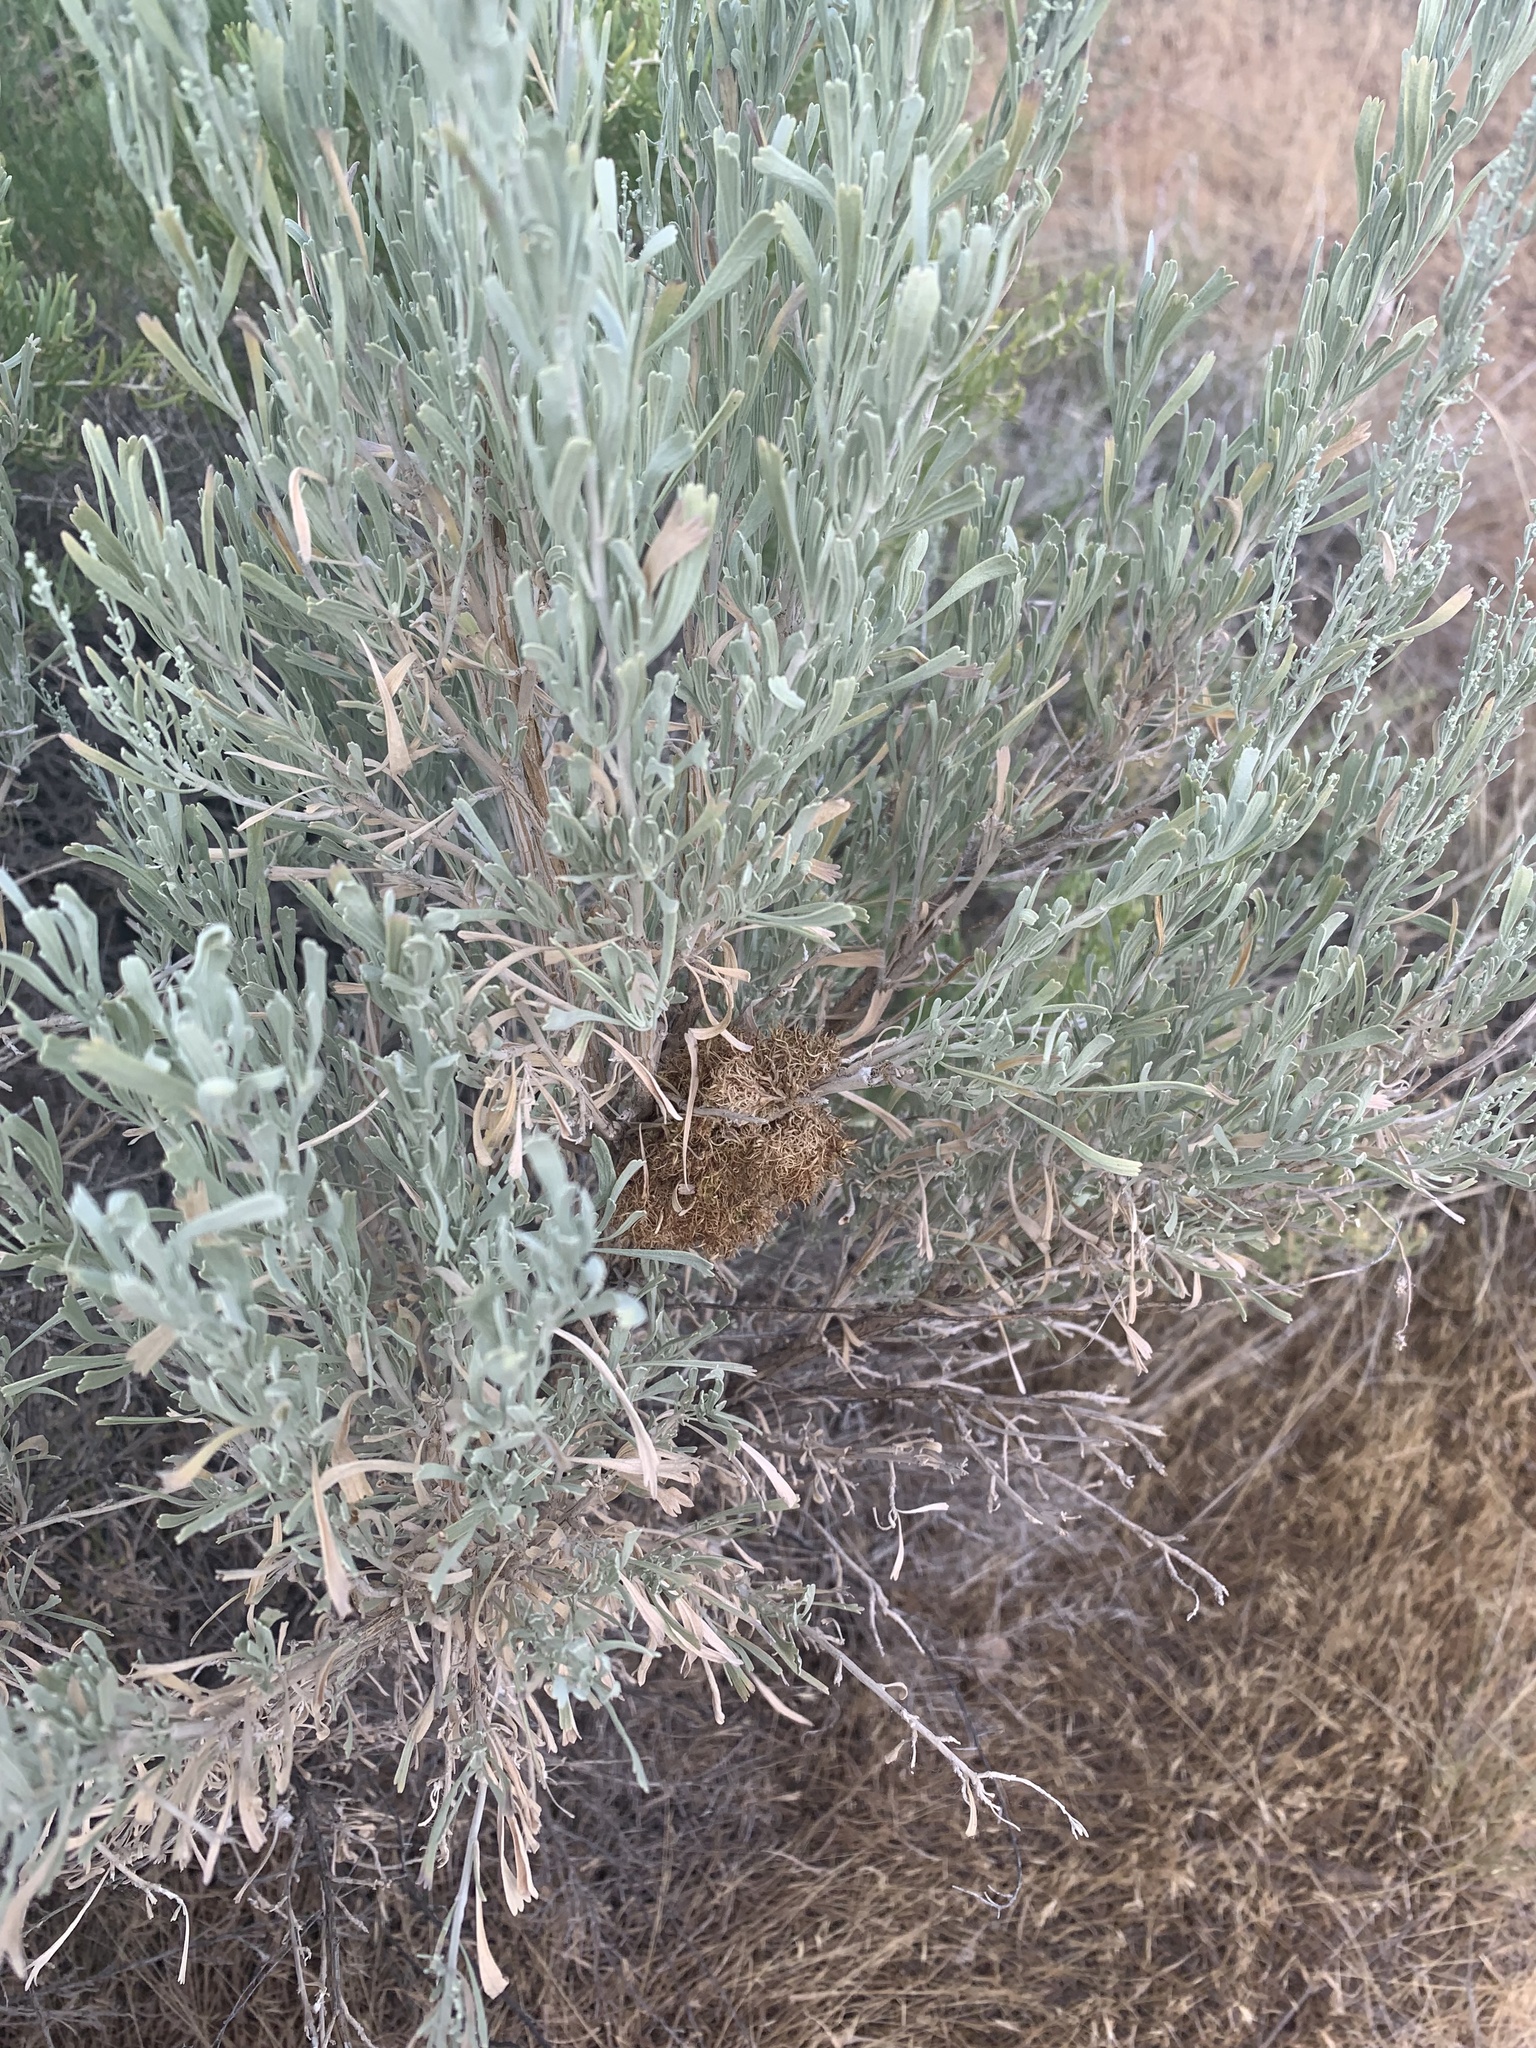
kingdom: Plantae
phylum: Tracheophyta
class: Magnoliopsida
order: Asterales
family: Asteraceae
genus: Artemisia
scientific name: Artemisia tridentata
